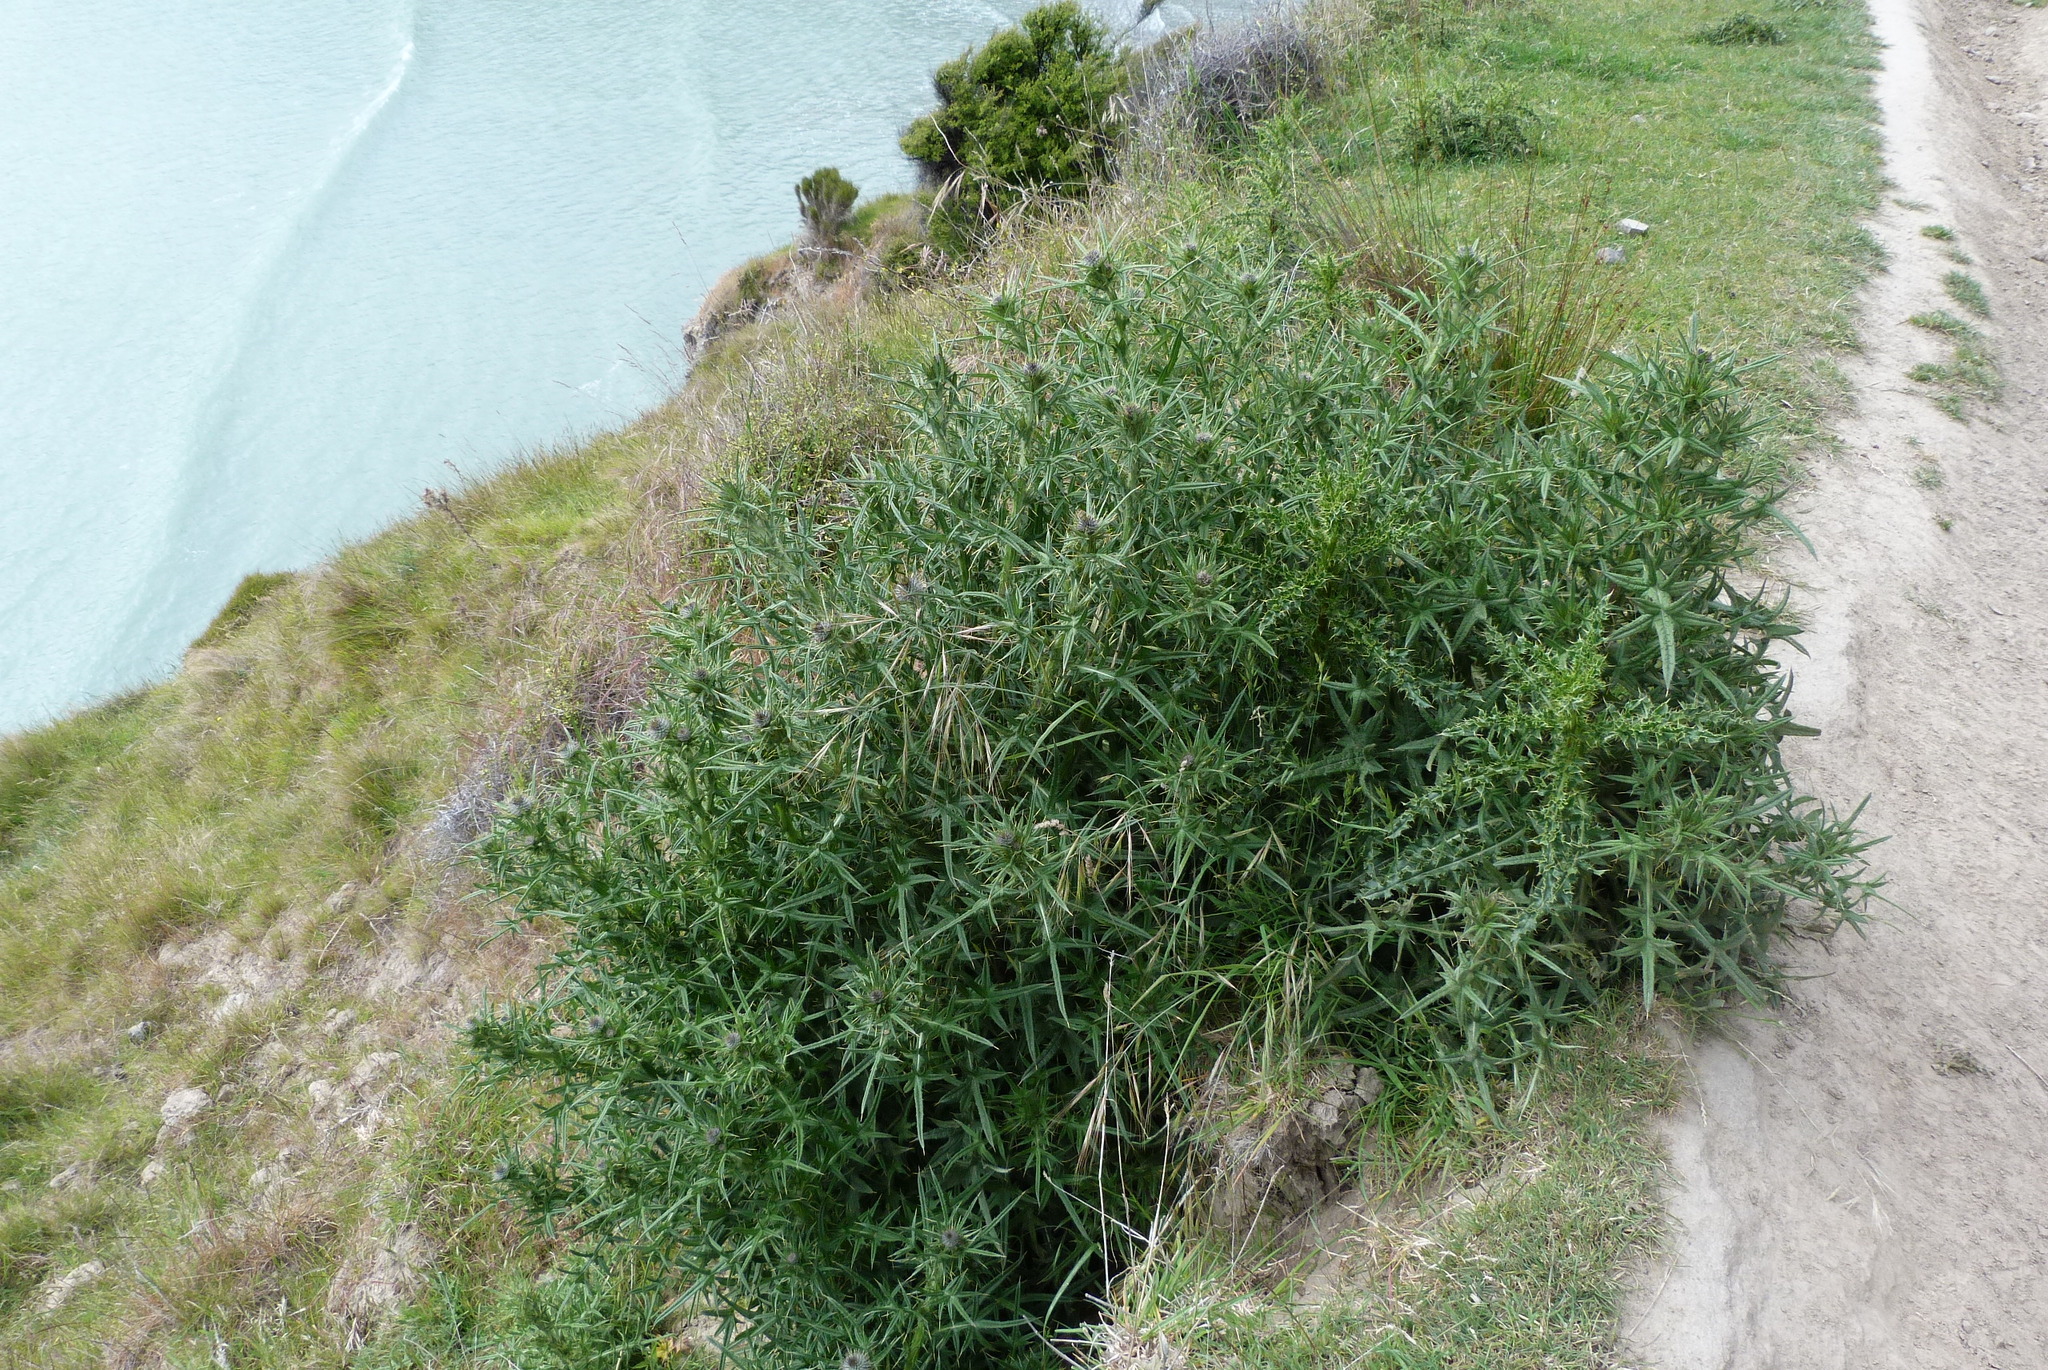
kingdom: Plantae
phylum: Tracheophyta
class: Magnoliopsida
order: Asterales
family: Asteraceae
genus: Cirsium
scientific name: Cirsium vulgare
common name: Bull thistle
